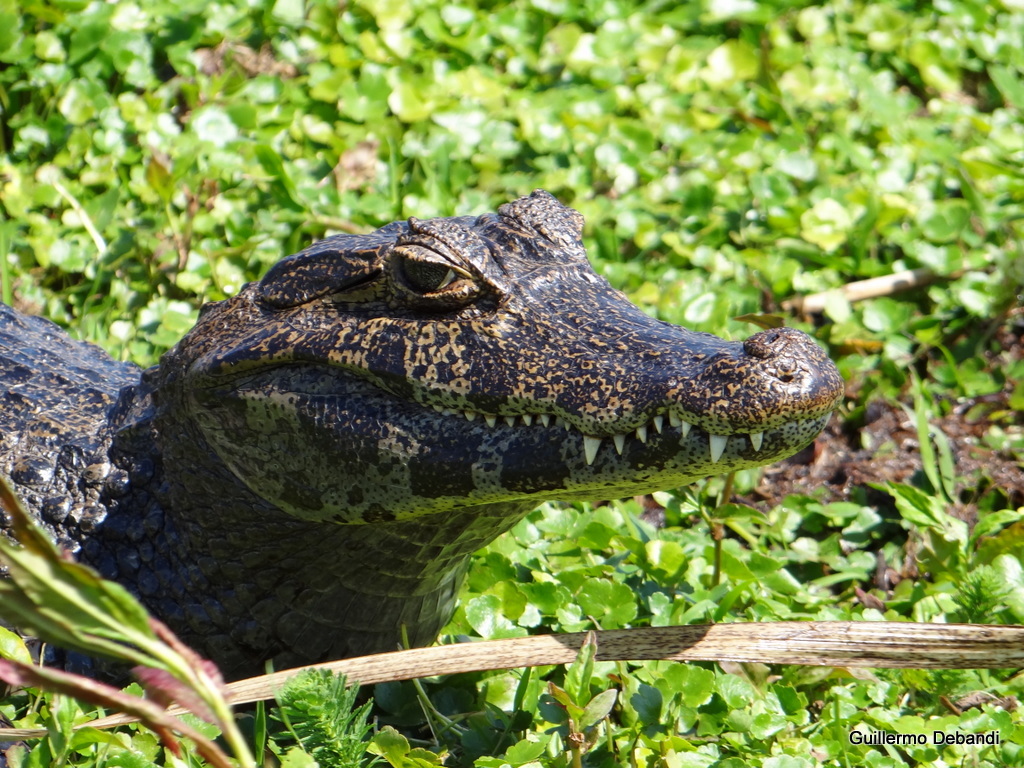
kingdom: Animalia
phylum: Chordata
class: Crocodylia
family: Alligatoridae
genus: Caiman
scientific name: Caiman yacare
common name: Yacare caiman
